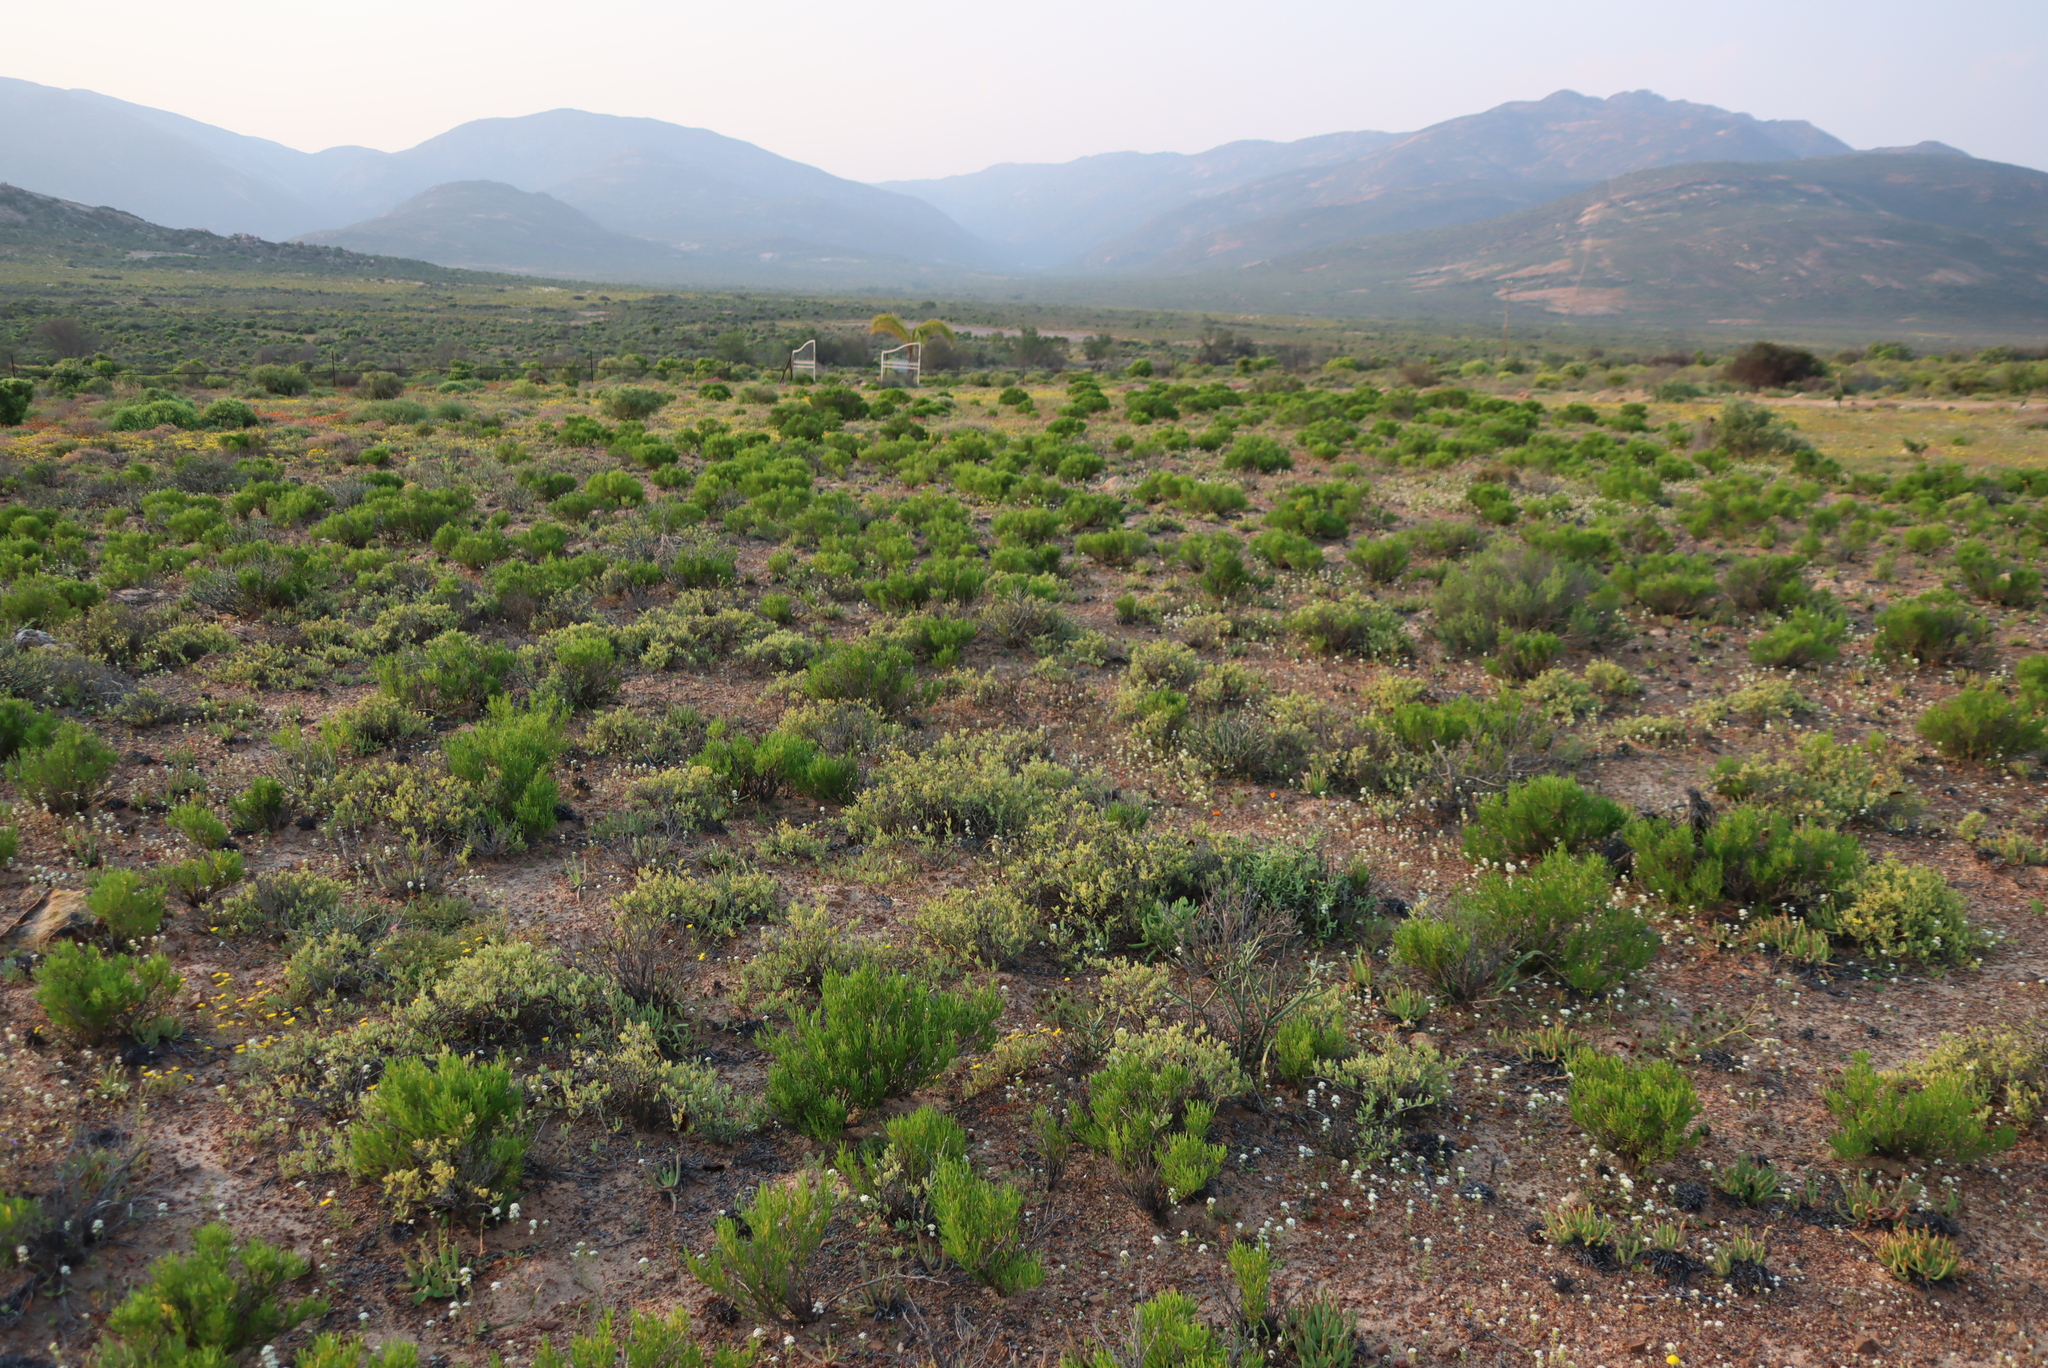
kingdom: Plantae
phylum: Tracheophyta
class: Magnoliopsida
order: Asterales
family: Asteraceae
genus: Pteronia
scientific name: Pteronia pillansii
